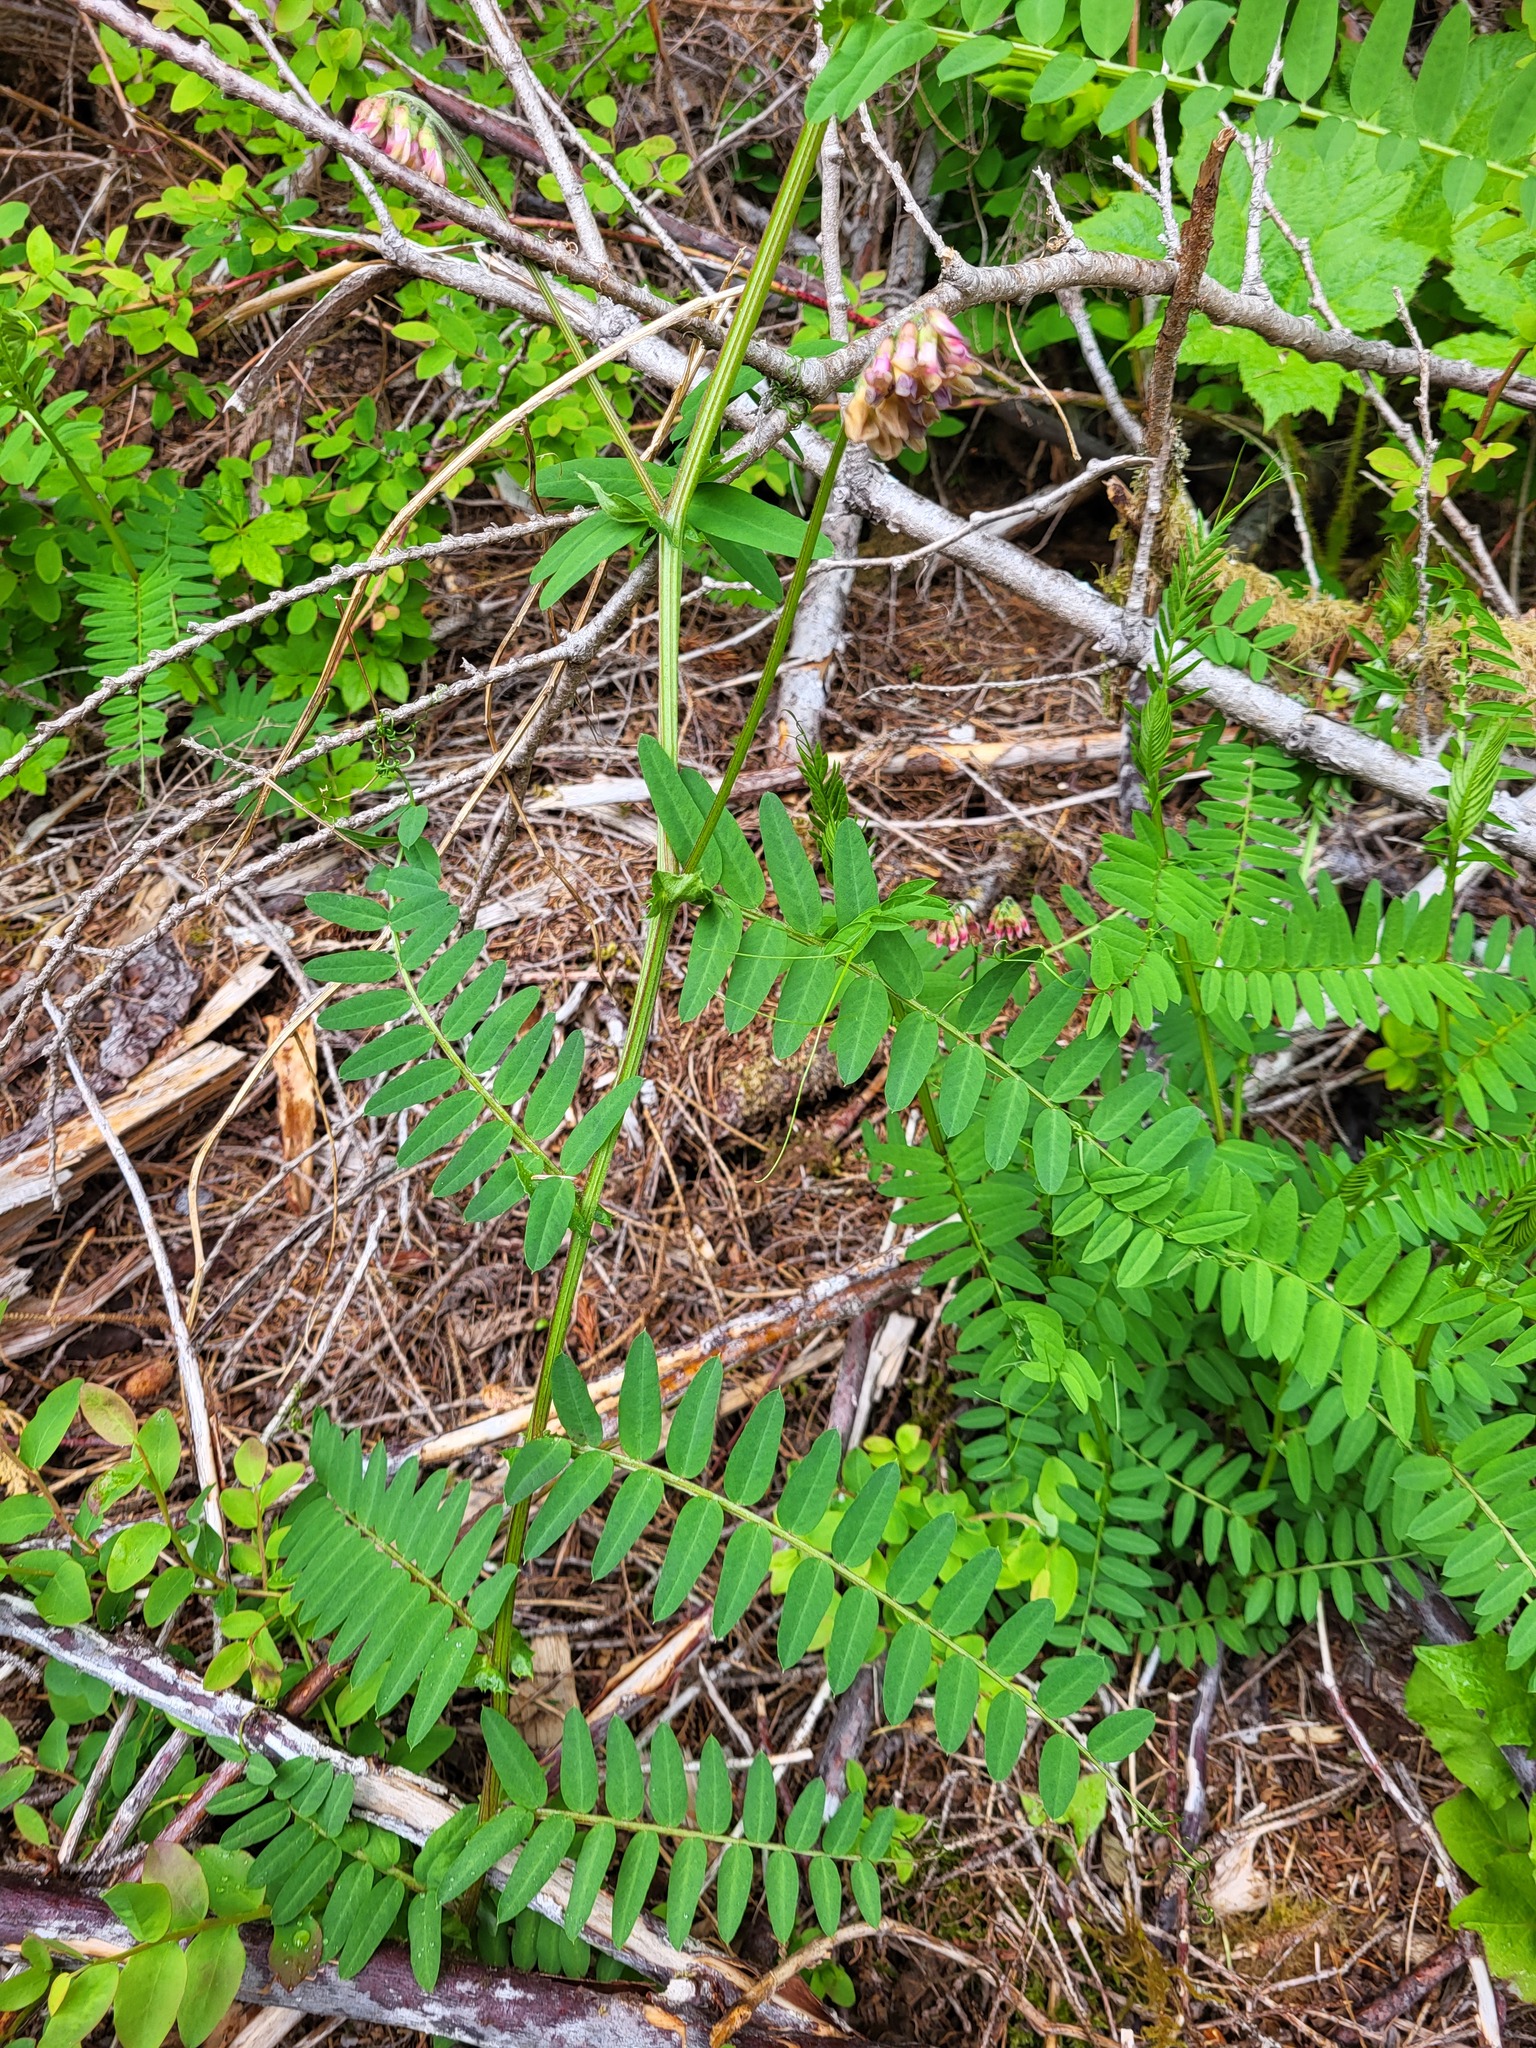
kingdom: Plantae
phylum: Tracheophyta
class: Magnoliopsida
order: Fabales
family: Fabaceae
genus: Vicia
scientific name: Vicia
